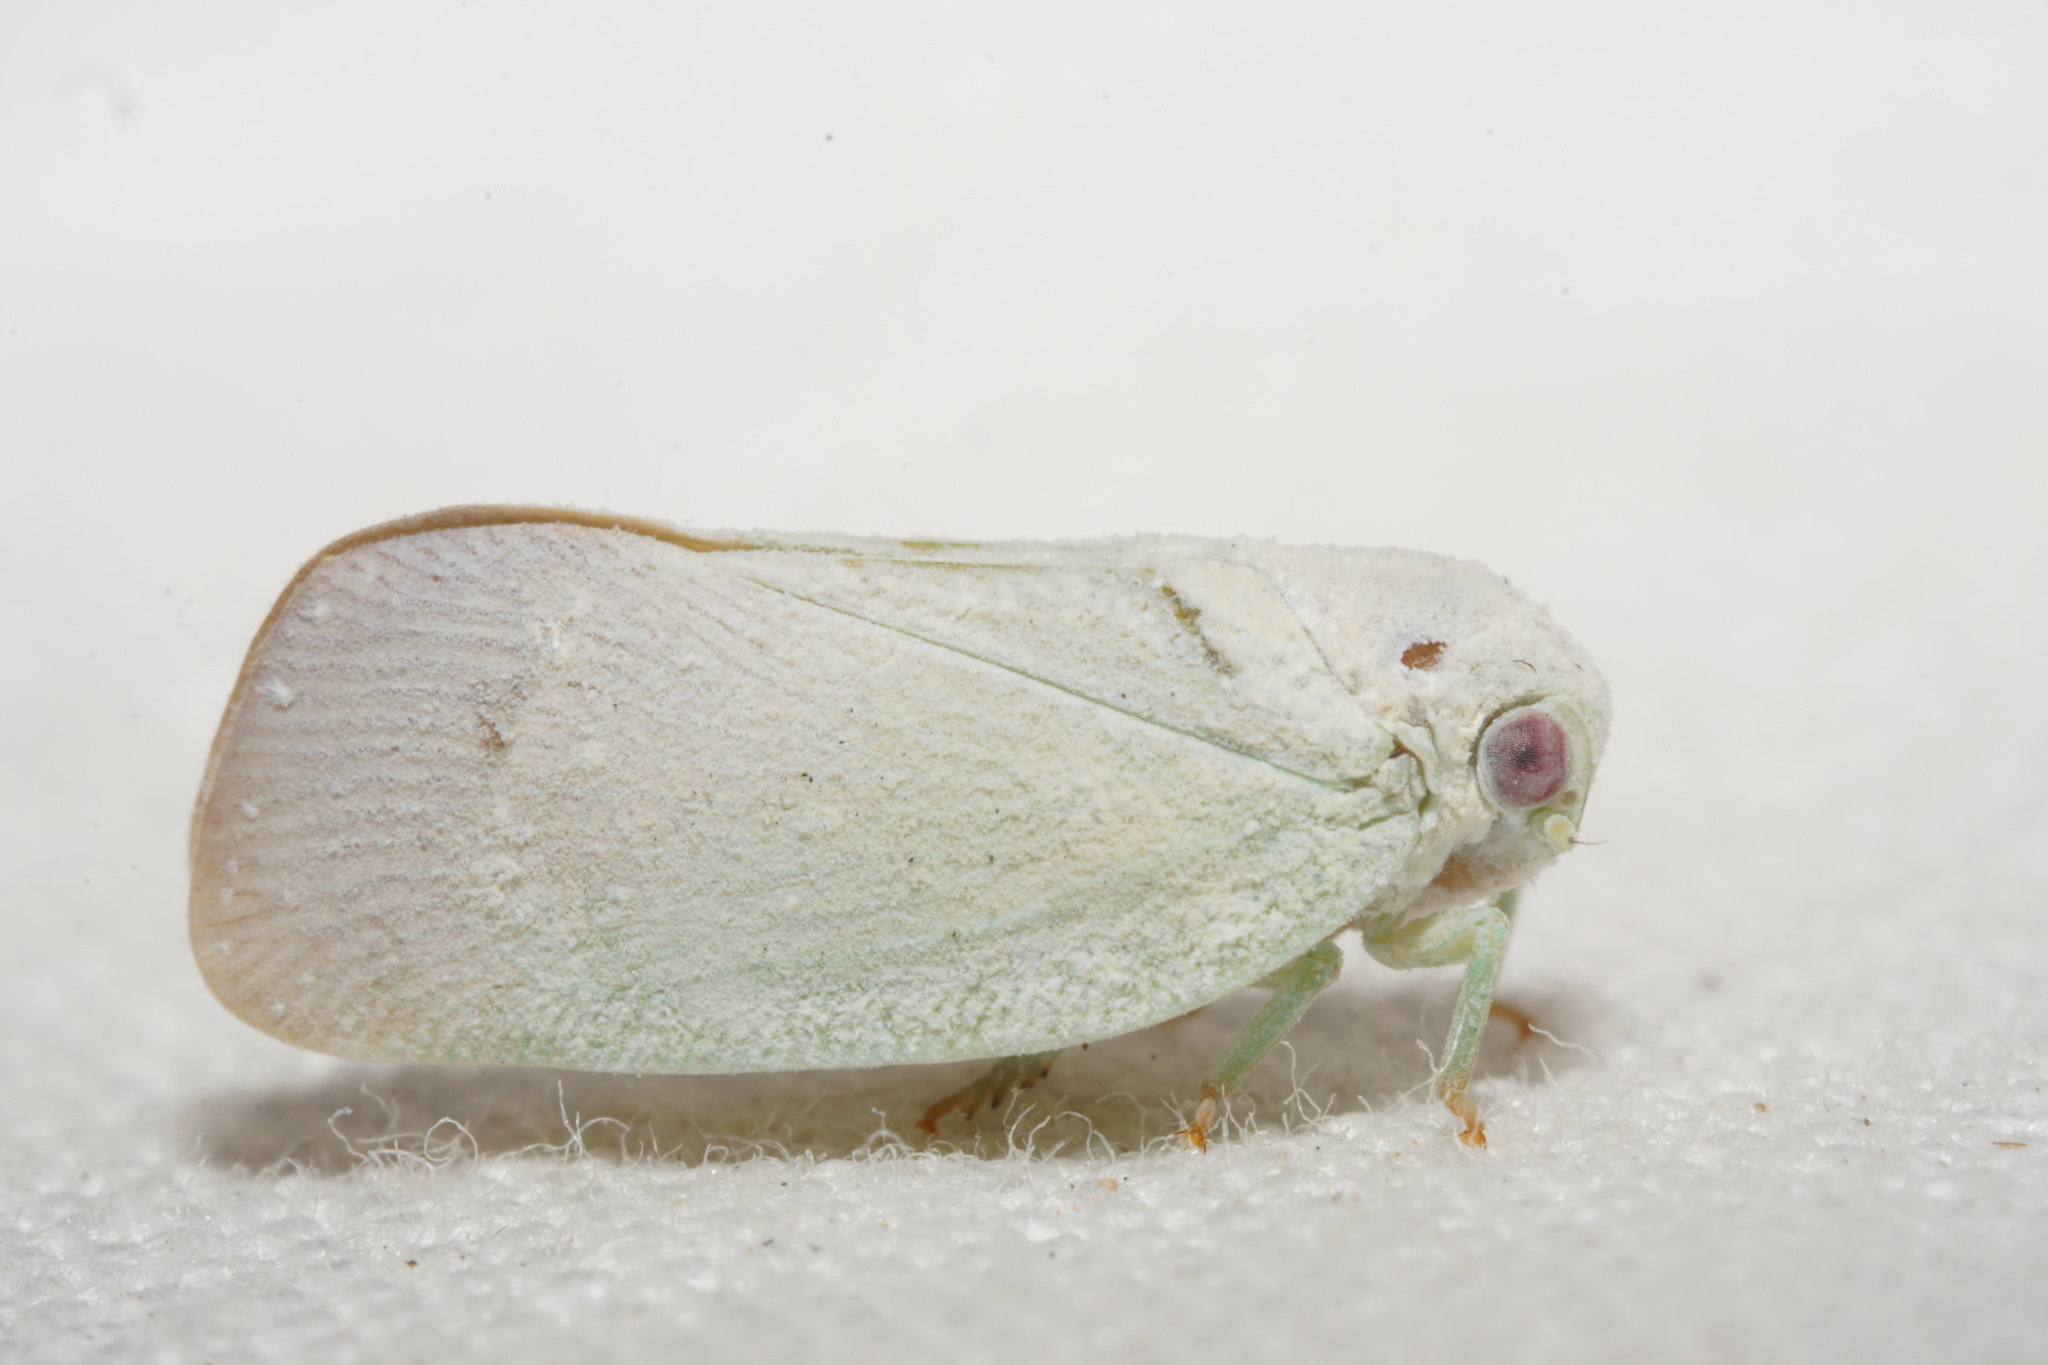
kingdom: Animalia
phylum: Arthropoda
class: Insecta
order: Hemiptera
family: Flatidae
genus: Flatormenis
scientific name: Flatormenis saucia
